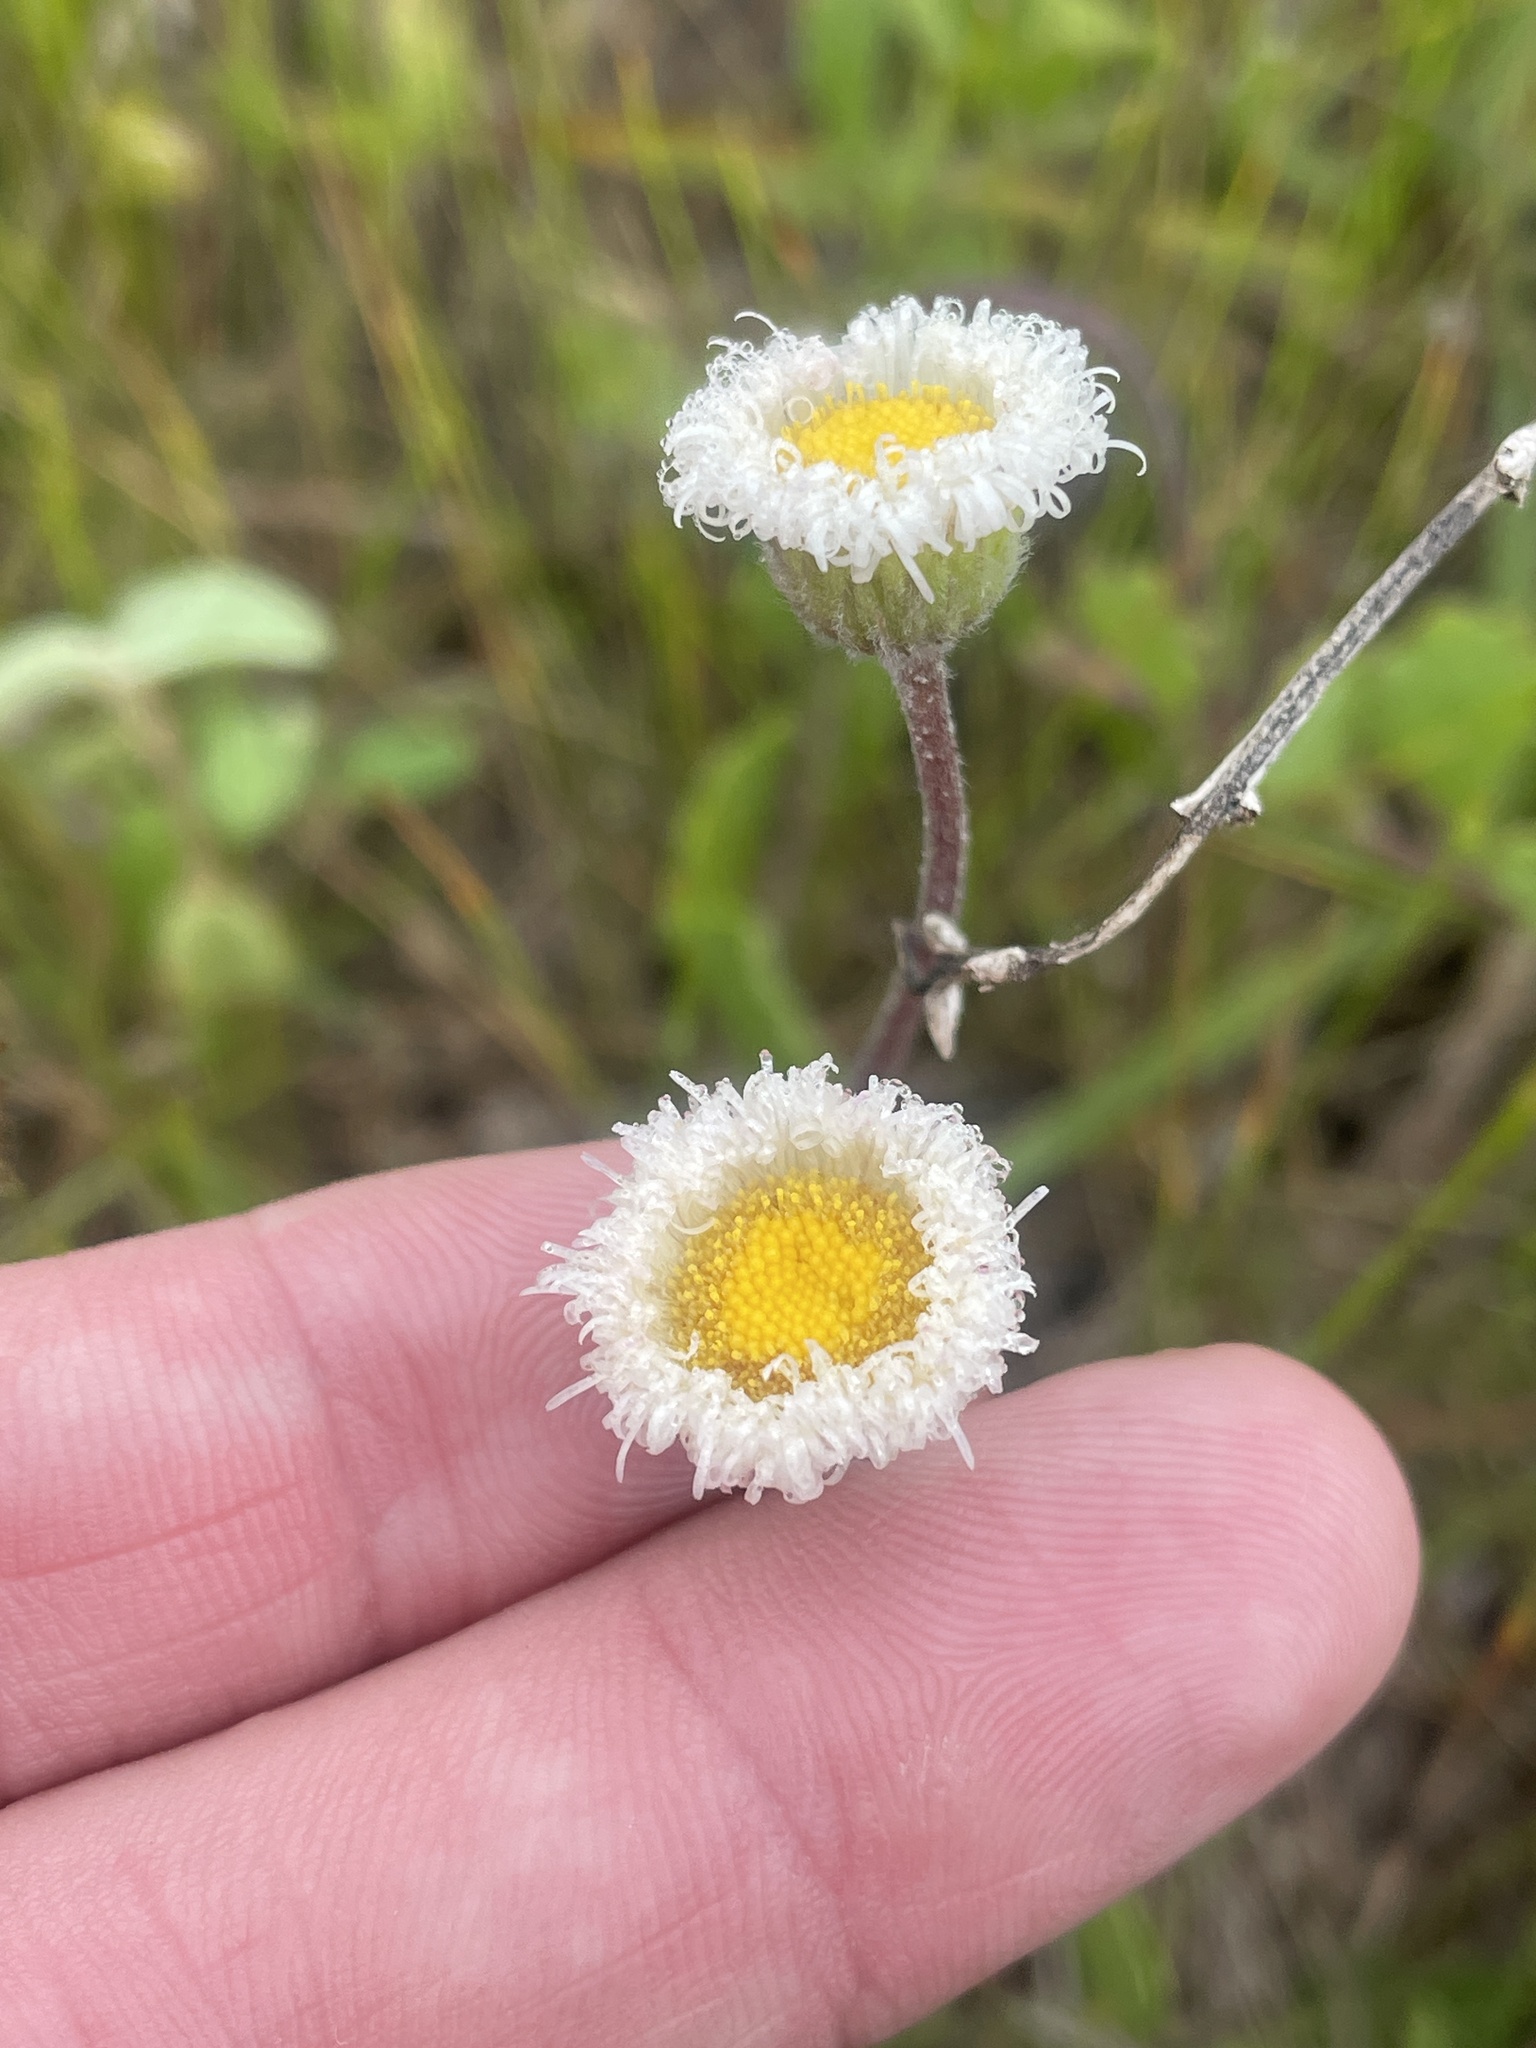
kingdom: Plantae
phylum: Tracheophyta
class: Magnoliopsida
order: Asterales
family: Asteraceae
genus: Erigeron
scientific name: Erigeron procumbens
